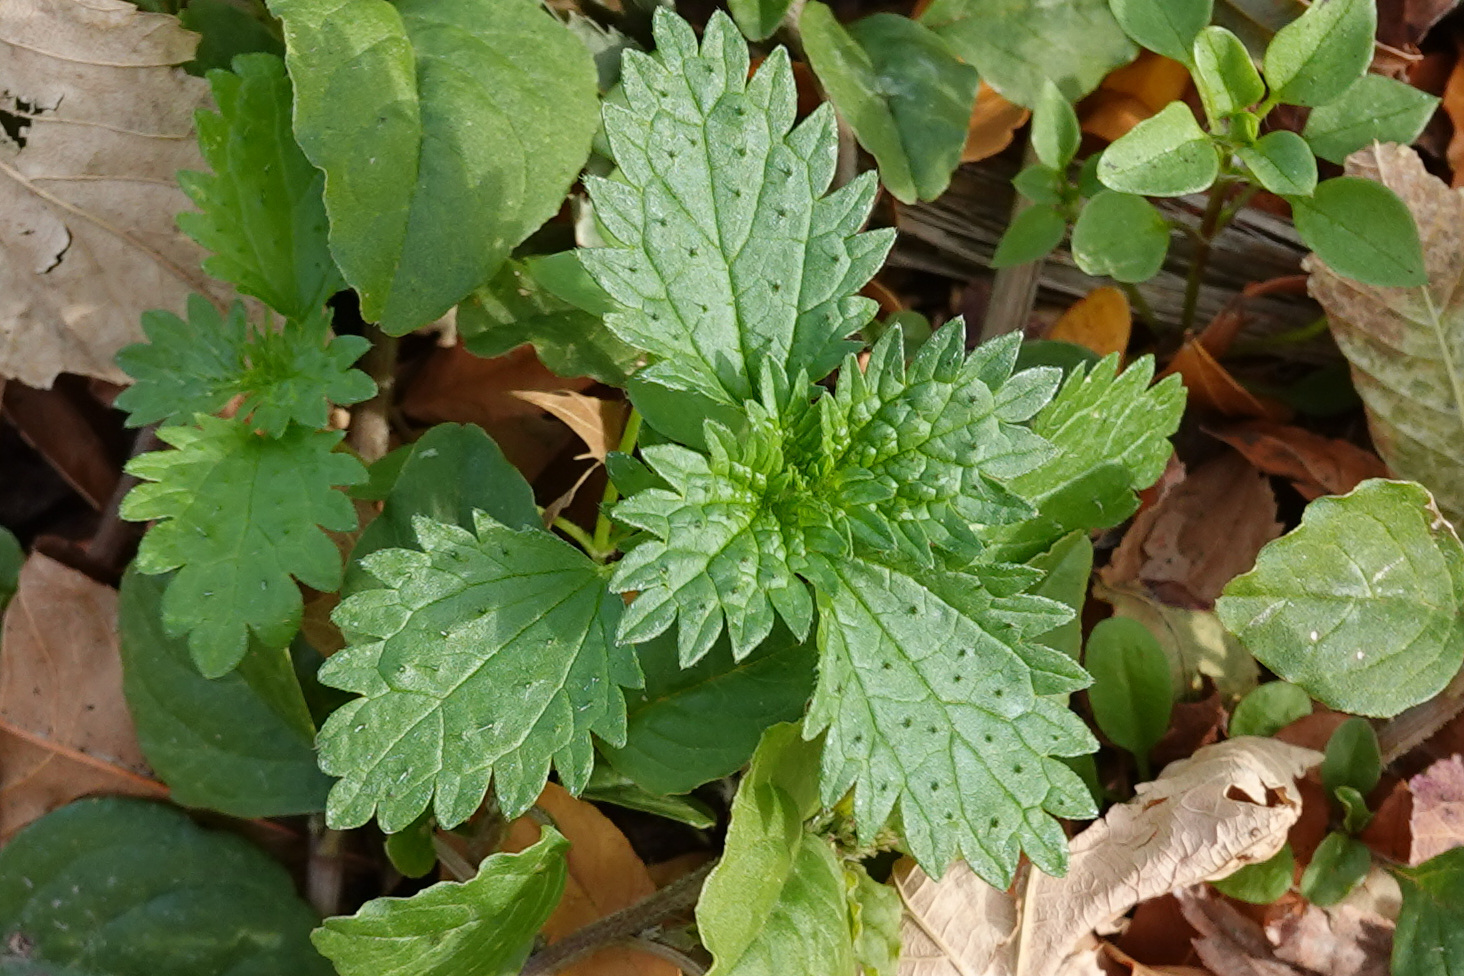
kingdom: Plantae
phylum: Tracheophyta
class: Magnoliopsida
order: Rosales
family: Urticaceae
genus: Urtica
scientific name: Urtica urens
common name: Dwarf nettle
